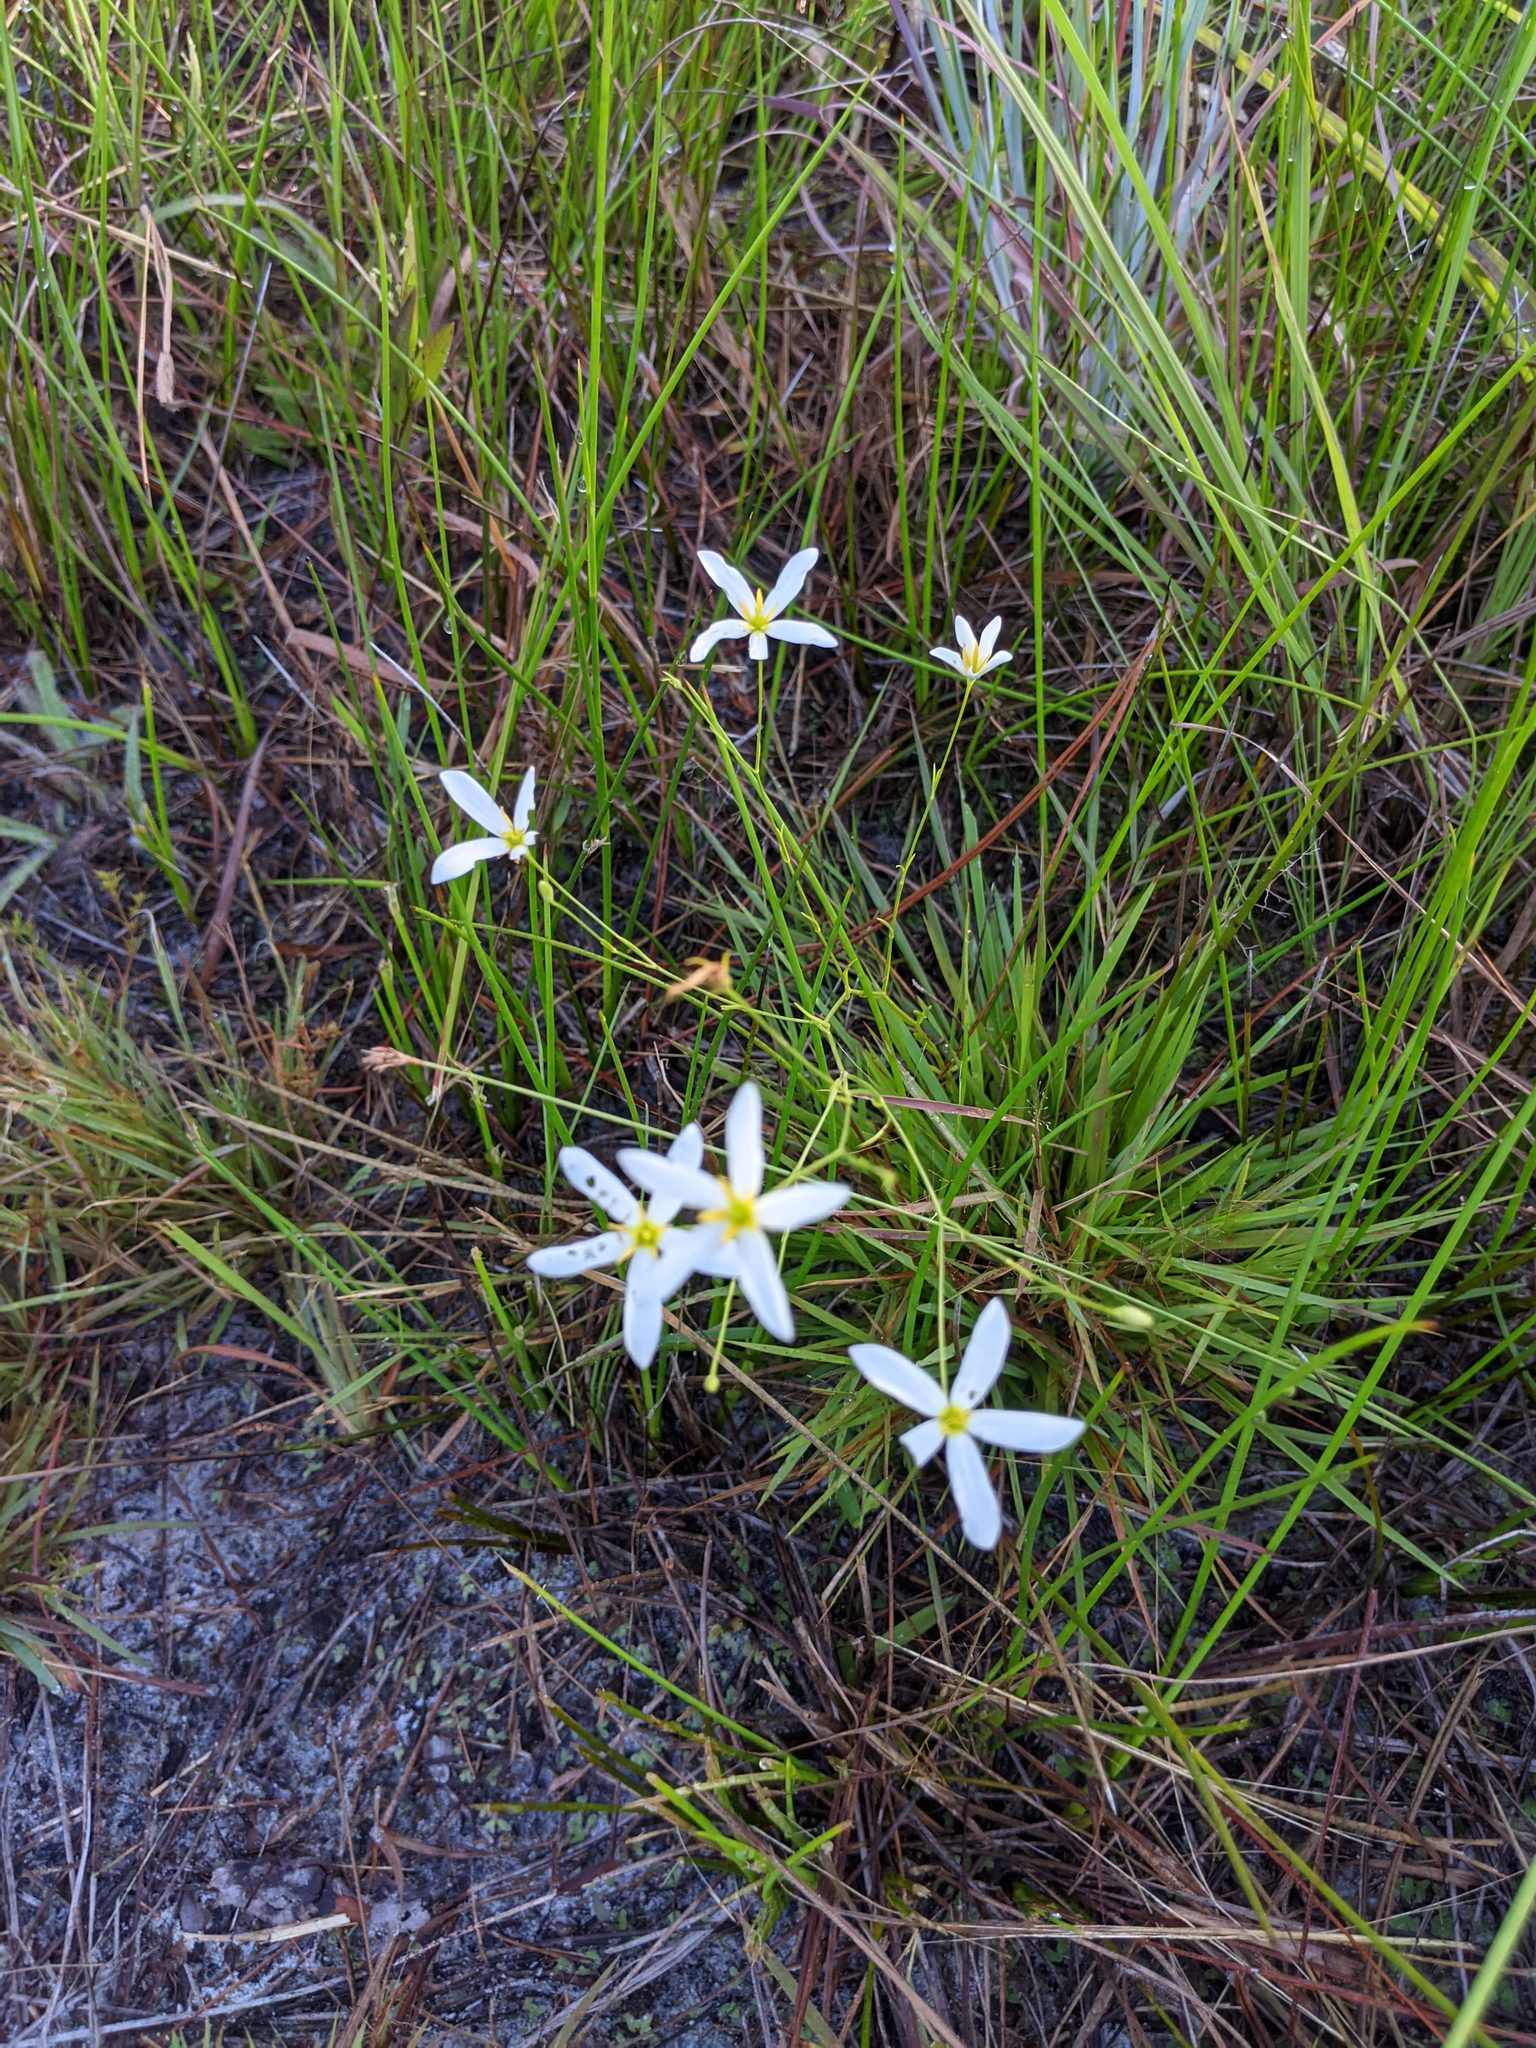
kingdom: Plantae
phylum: Tracheophyta
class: Magnoliopsida
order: Gentianales
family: Gentianaceae
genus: Sabatia
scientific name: Sabatia brevifolia
